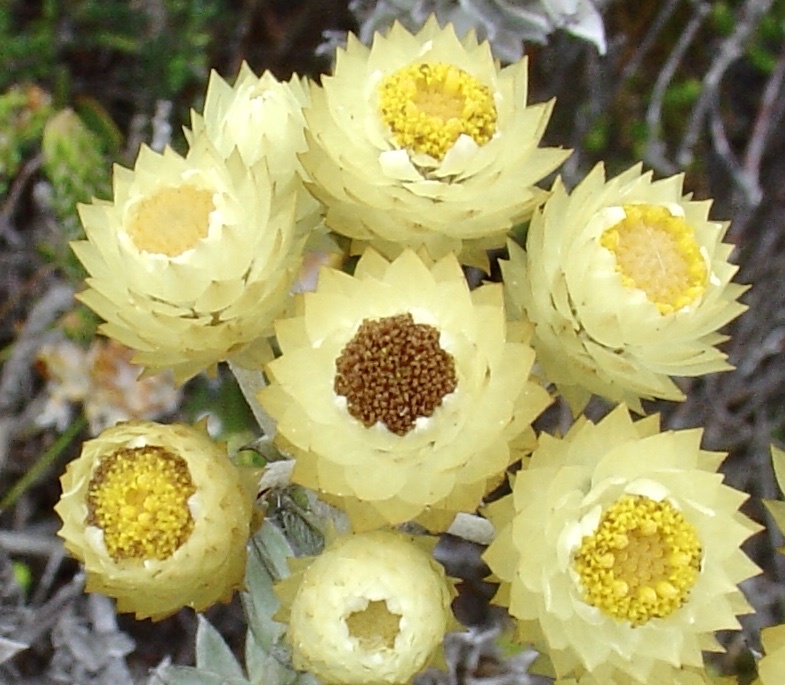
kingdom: Plantae
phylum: Tracheophyta
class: Magnoliopsida
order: Asterales
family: Asteraceae
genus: Achyranthemum
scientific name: Achyranthemum mucronatum
